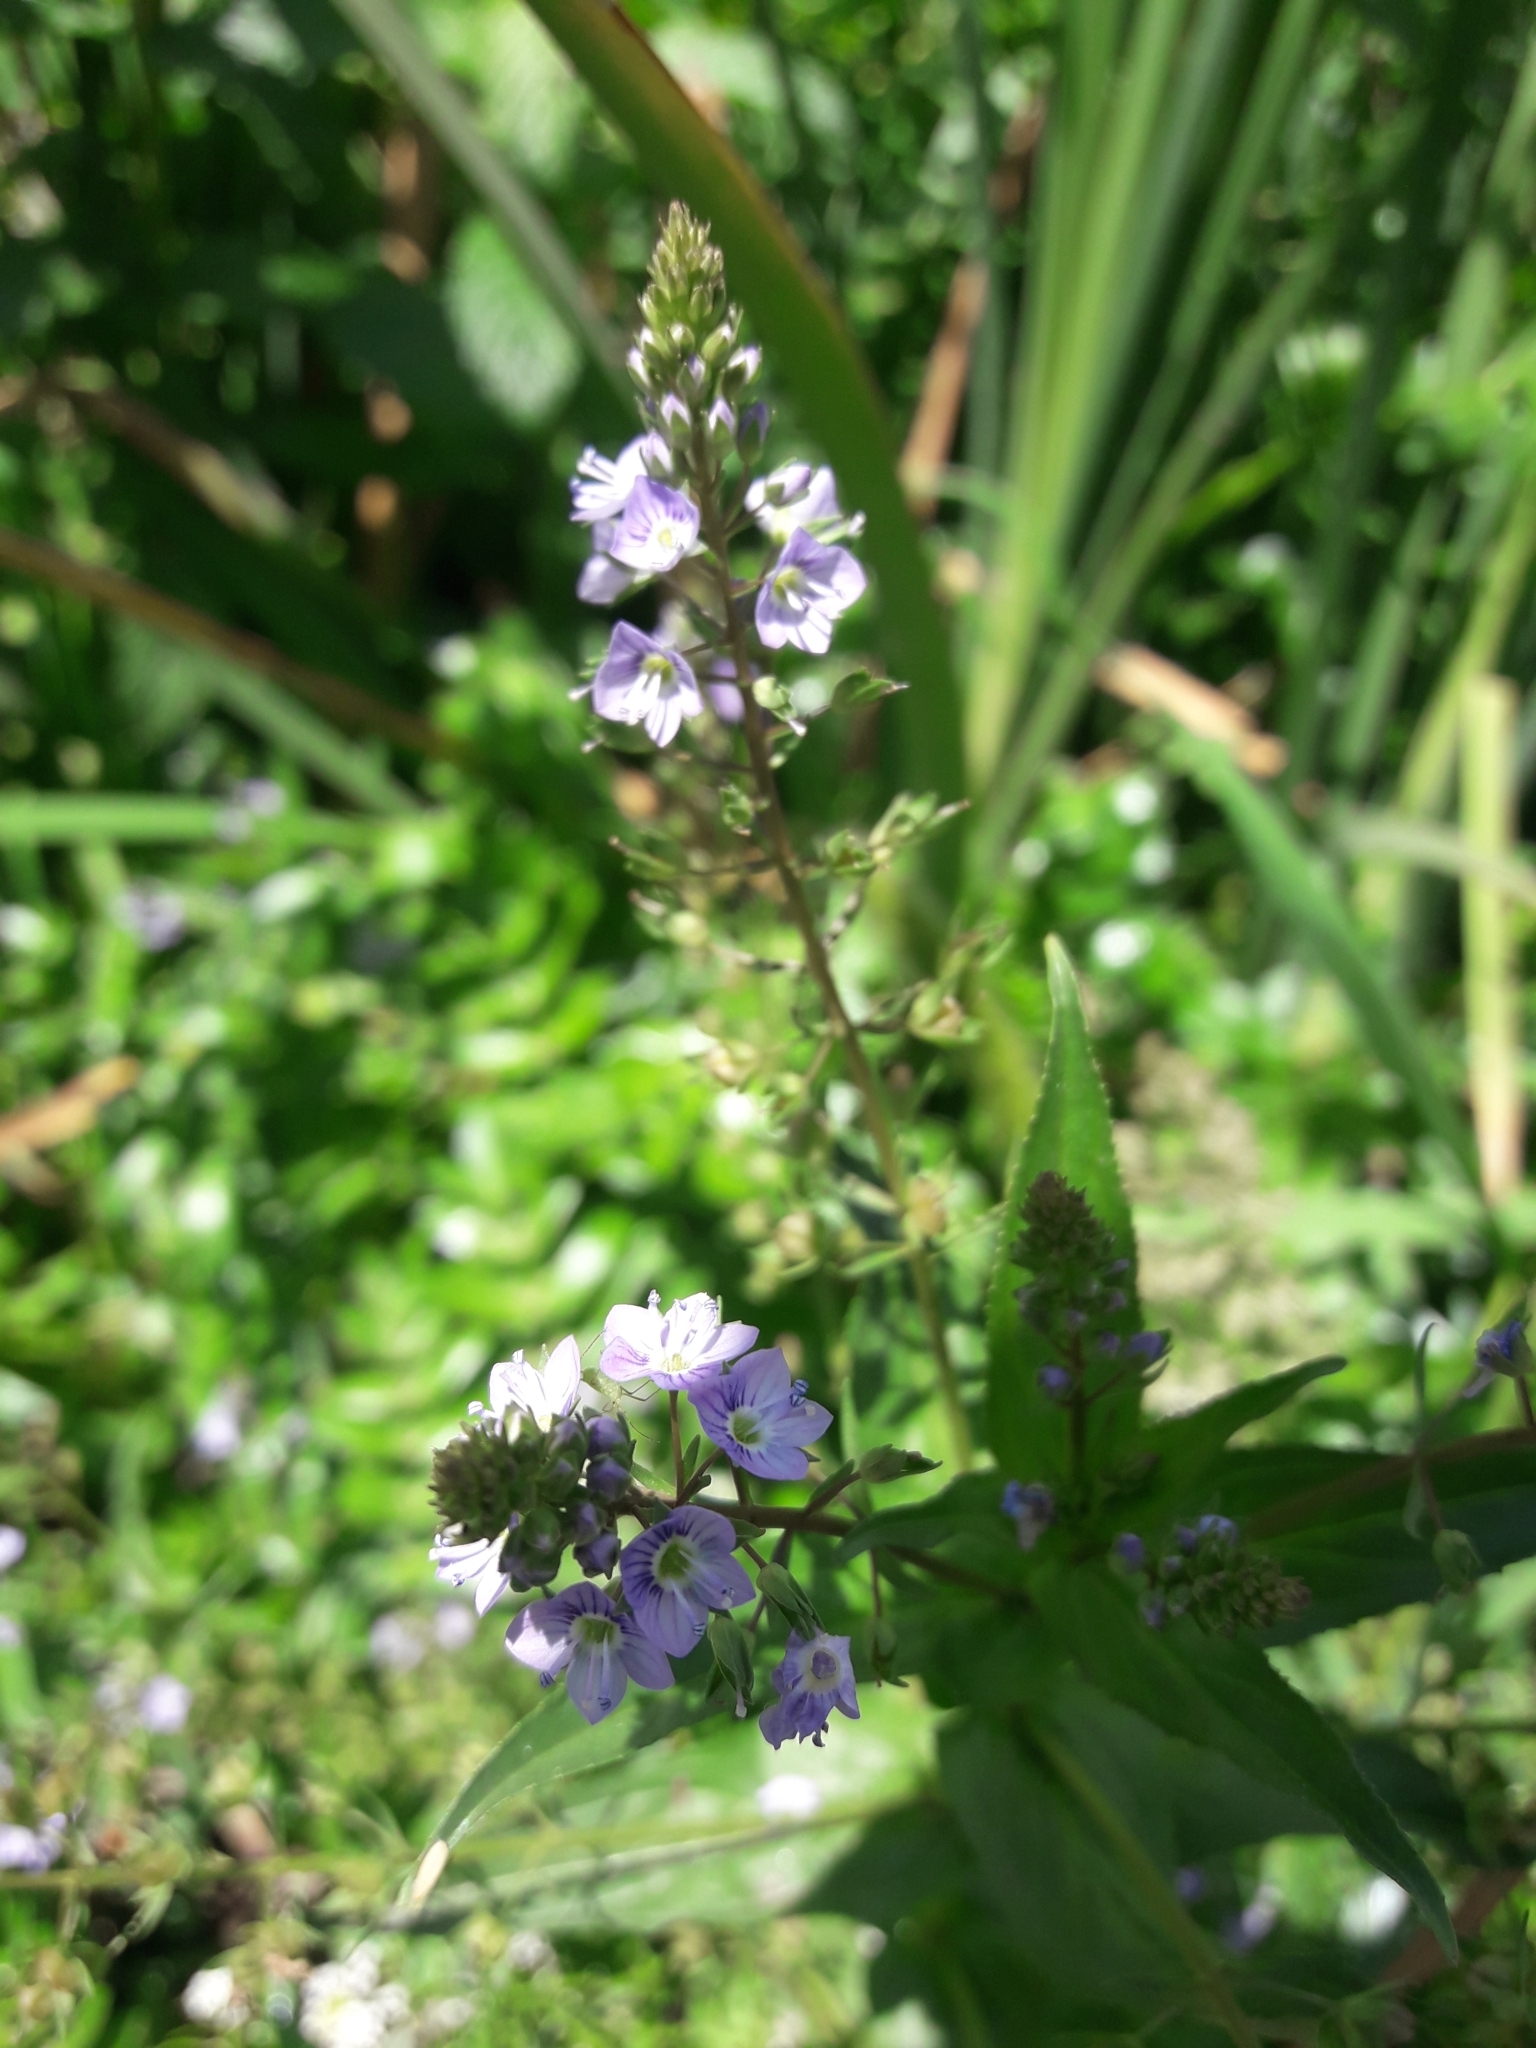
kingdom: Plantae
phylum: Tracheophyta
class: Magnoliopsida
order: Lamiales
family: Plantaginaceae
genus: Veronica
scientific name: Veronica anagallis-aquatica
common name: Water speedwell
